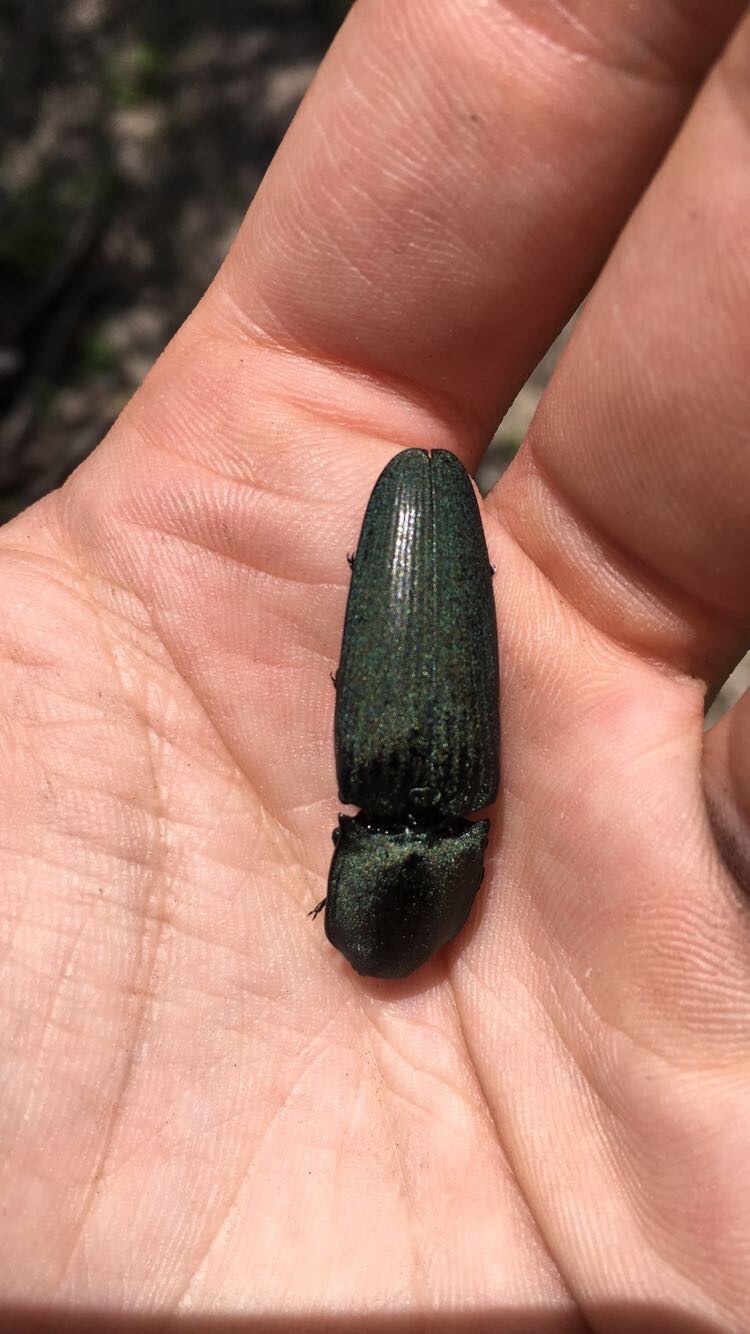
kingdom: Animalia
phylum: Arthropoda
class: Insecta
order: Coleoptera
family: Elateridae
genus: Chalcolepidius
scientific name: Chalcolepidius
